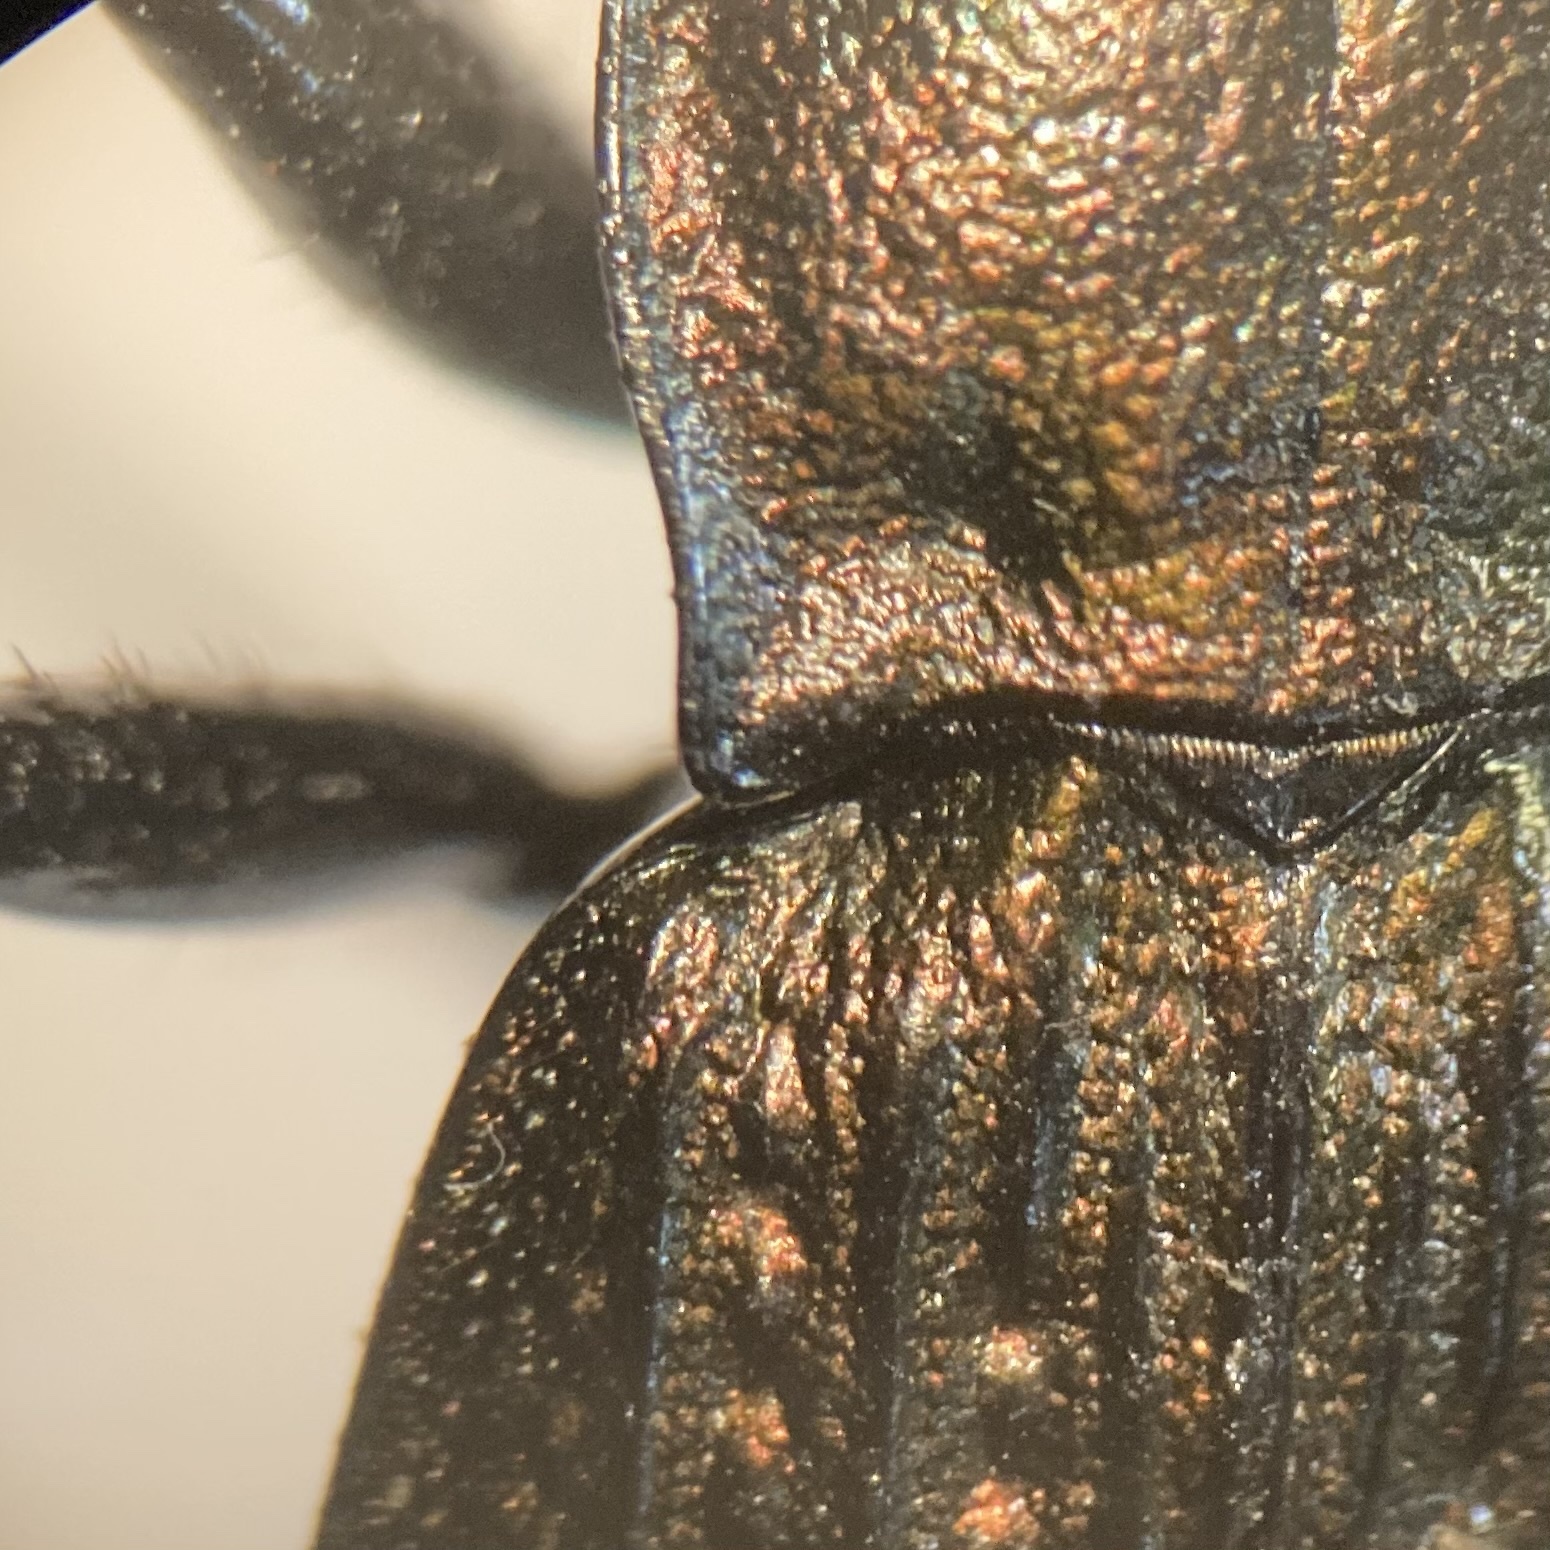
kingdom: Animalia
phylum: Arthropoda
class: Insecta
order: Coleoptera
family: Carabidae
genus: Carabus
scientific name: Carabus granulatus
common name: Granulate ground beetle
